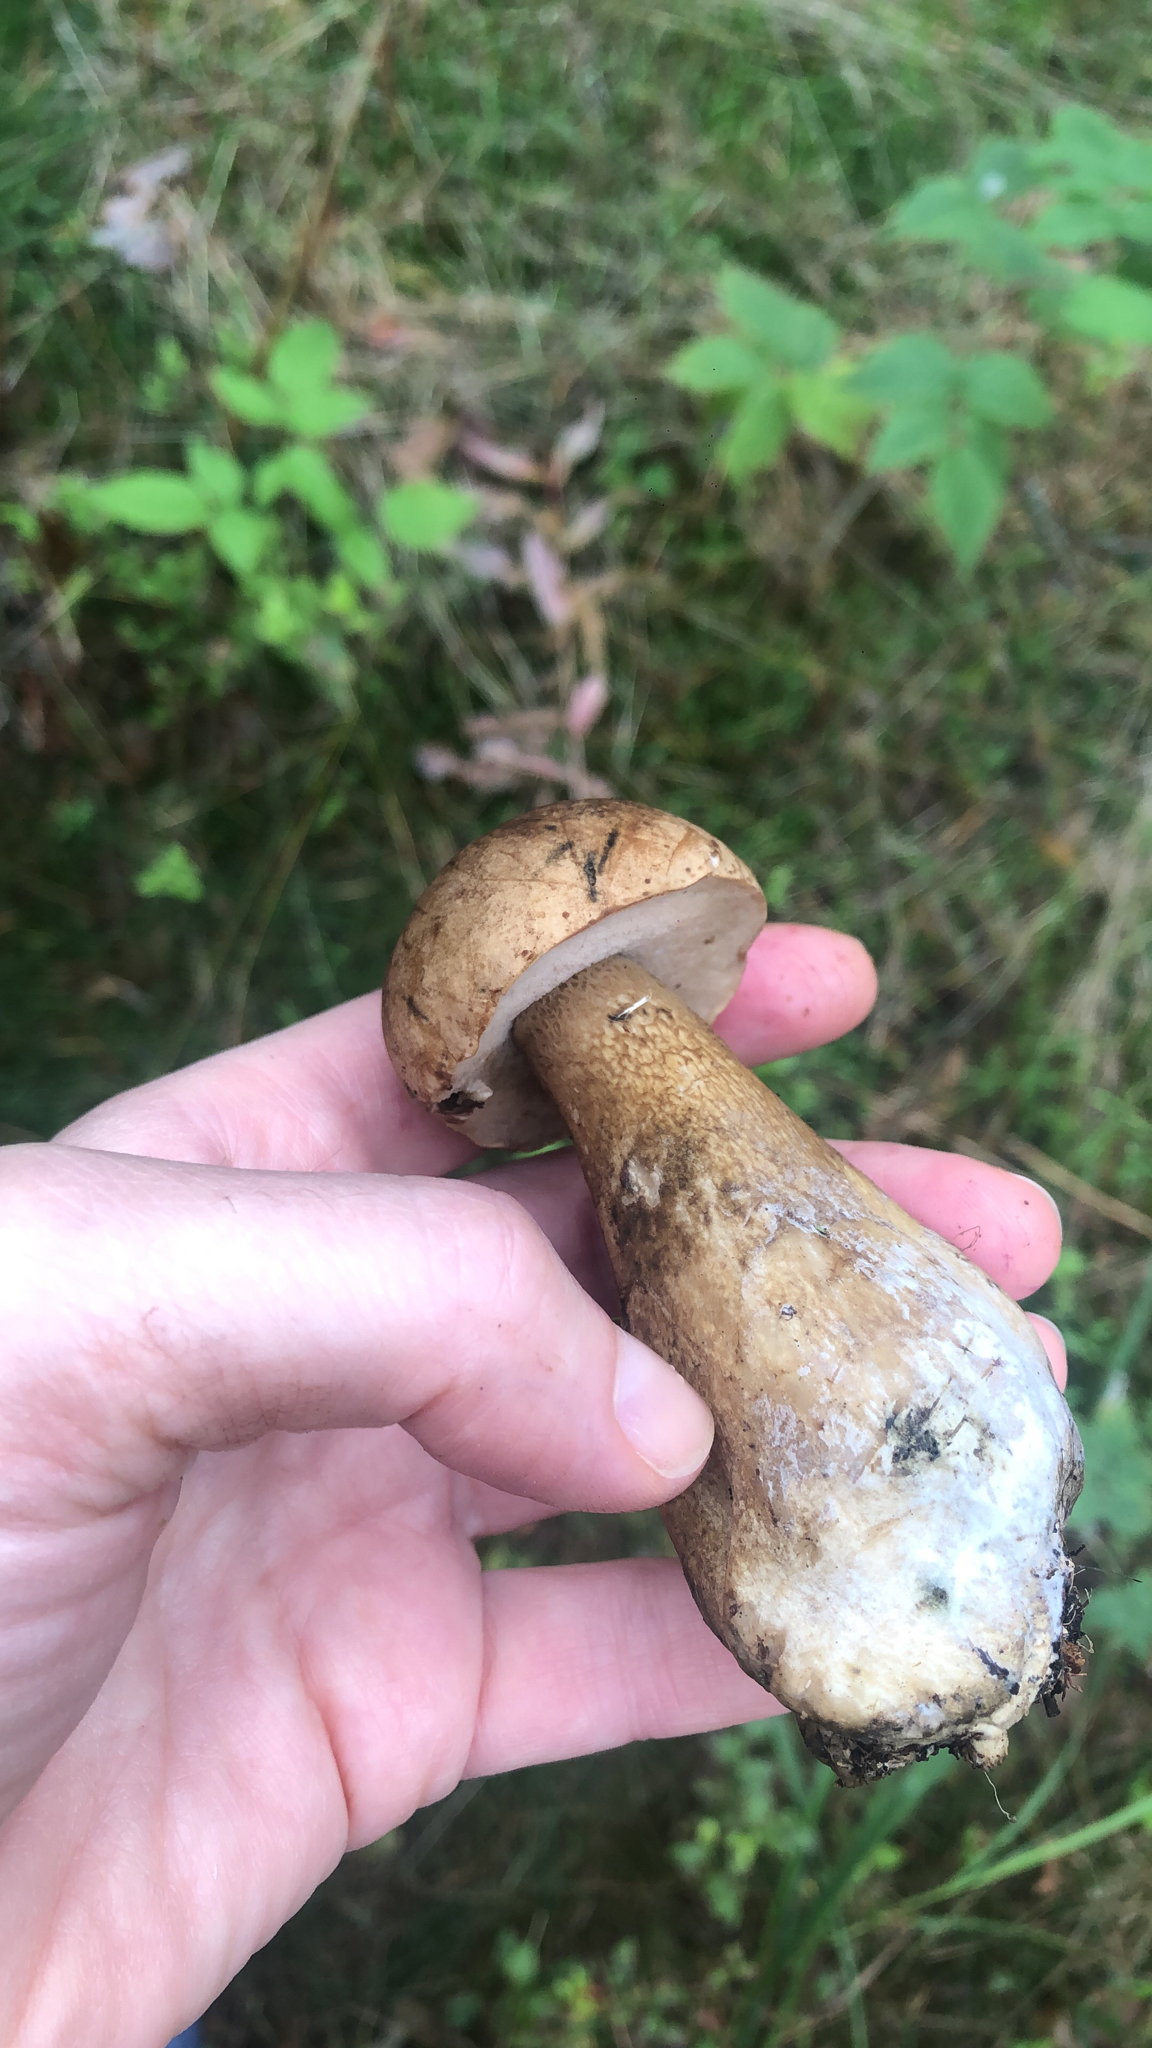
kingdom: Fungi
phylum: Basidiomycota
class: Agaricomycetes
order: Boletales
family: Boletaceae
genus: Tylopilus
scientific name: Tylopilus felleus
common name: Bitter bolete
